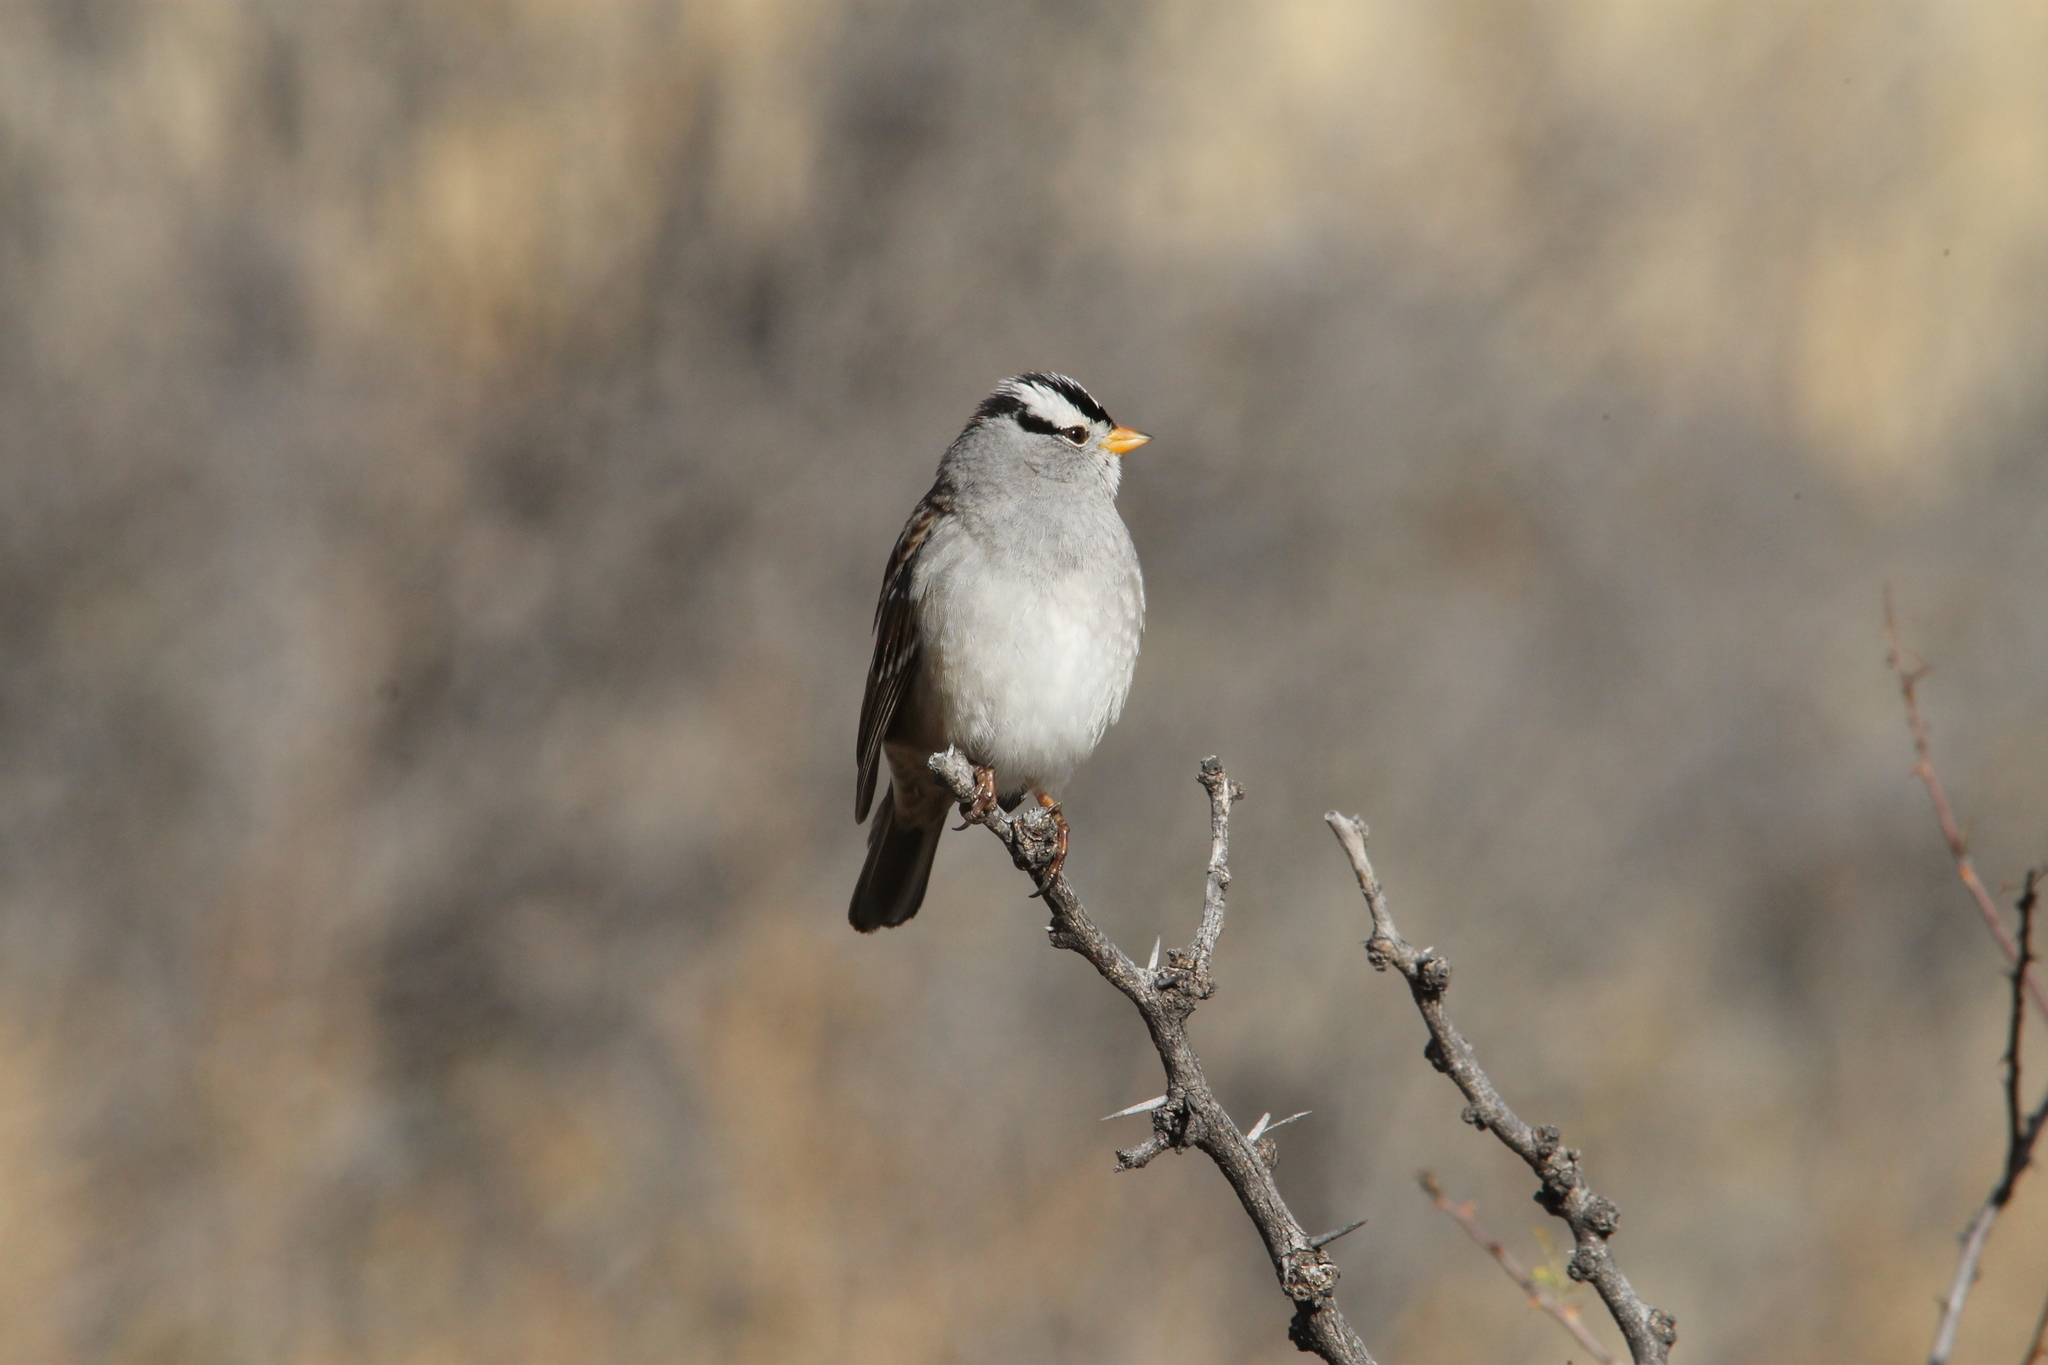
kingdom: Animalia
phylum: Chordata
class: Aves
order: Passeriformes
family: Passerellidae
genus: Zonotrichia
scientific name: Zonotrichia leucophrys
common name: White-crowned sparrow
